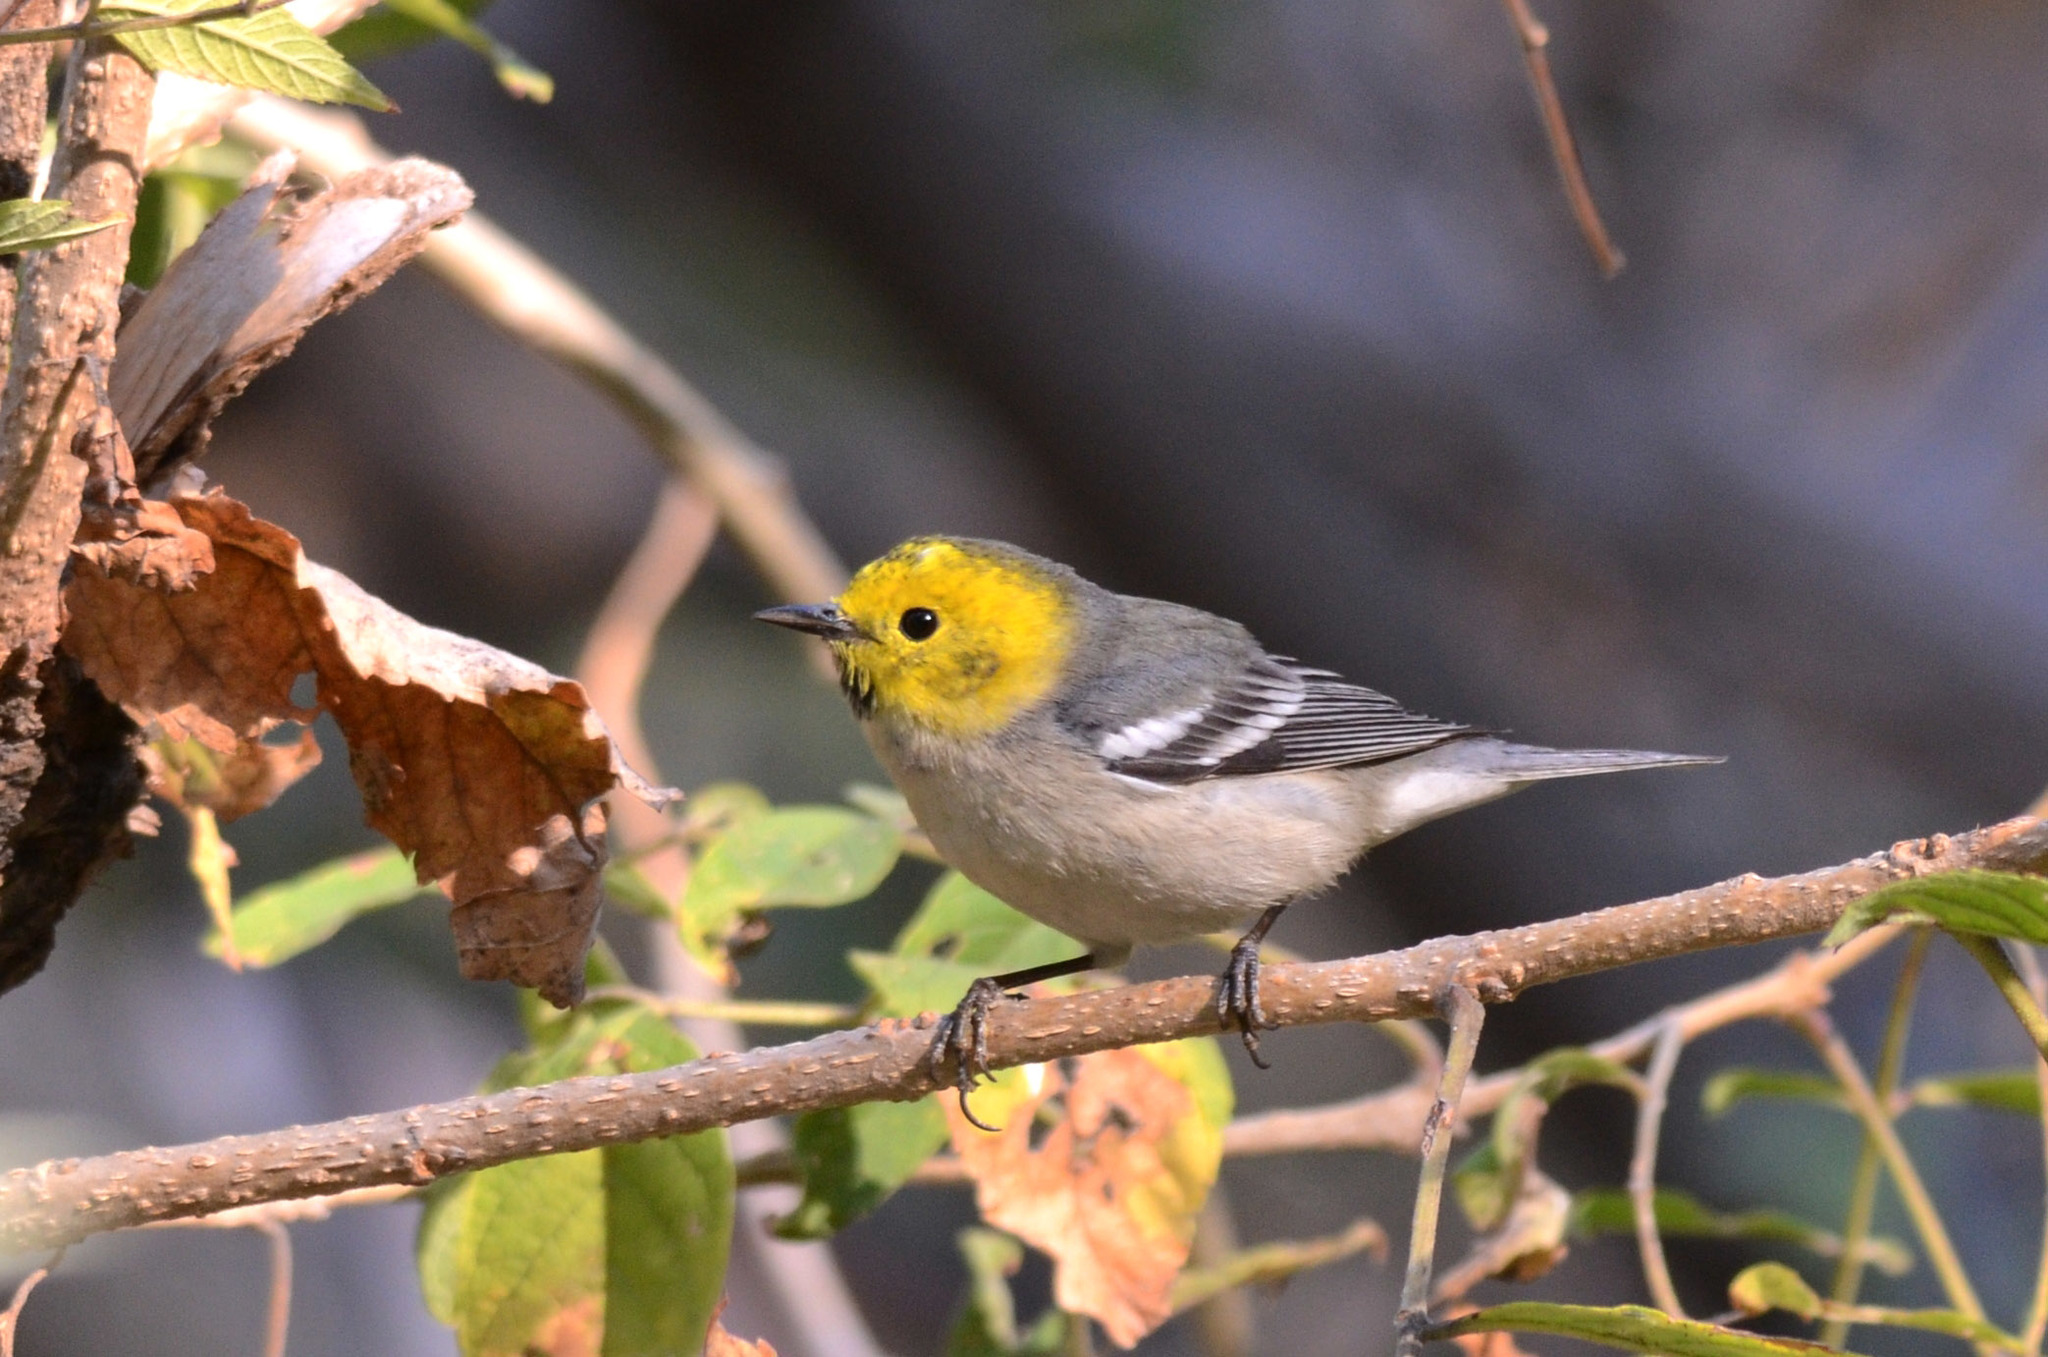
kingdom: Animalia
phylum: Chordata
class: Aves
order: Passeriformes
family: Parulidae
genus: Setophaga
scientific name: Setophaga occidentalis
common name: Hermit warbler
